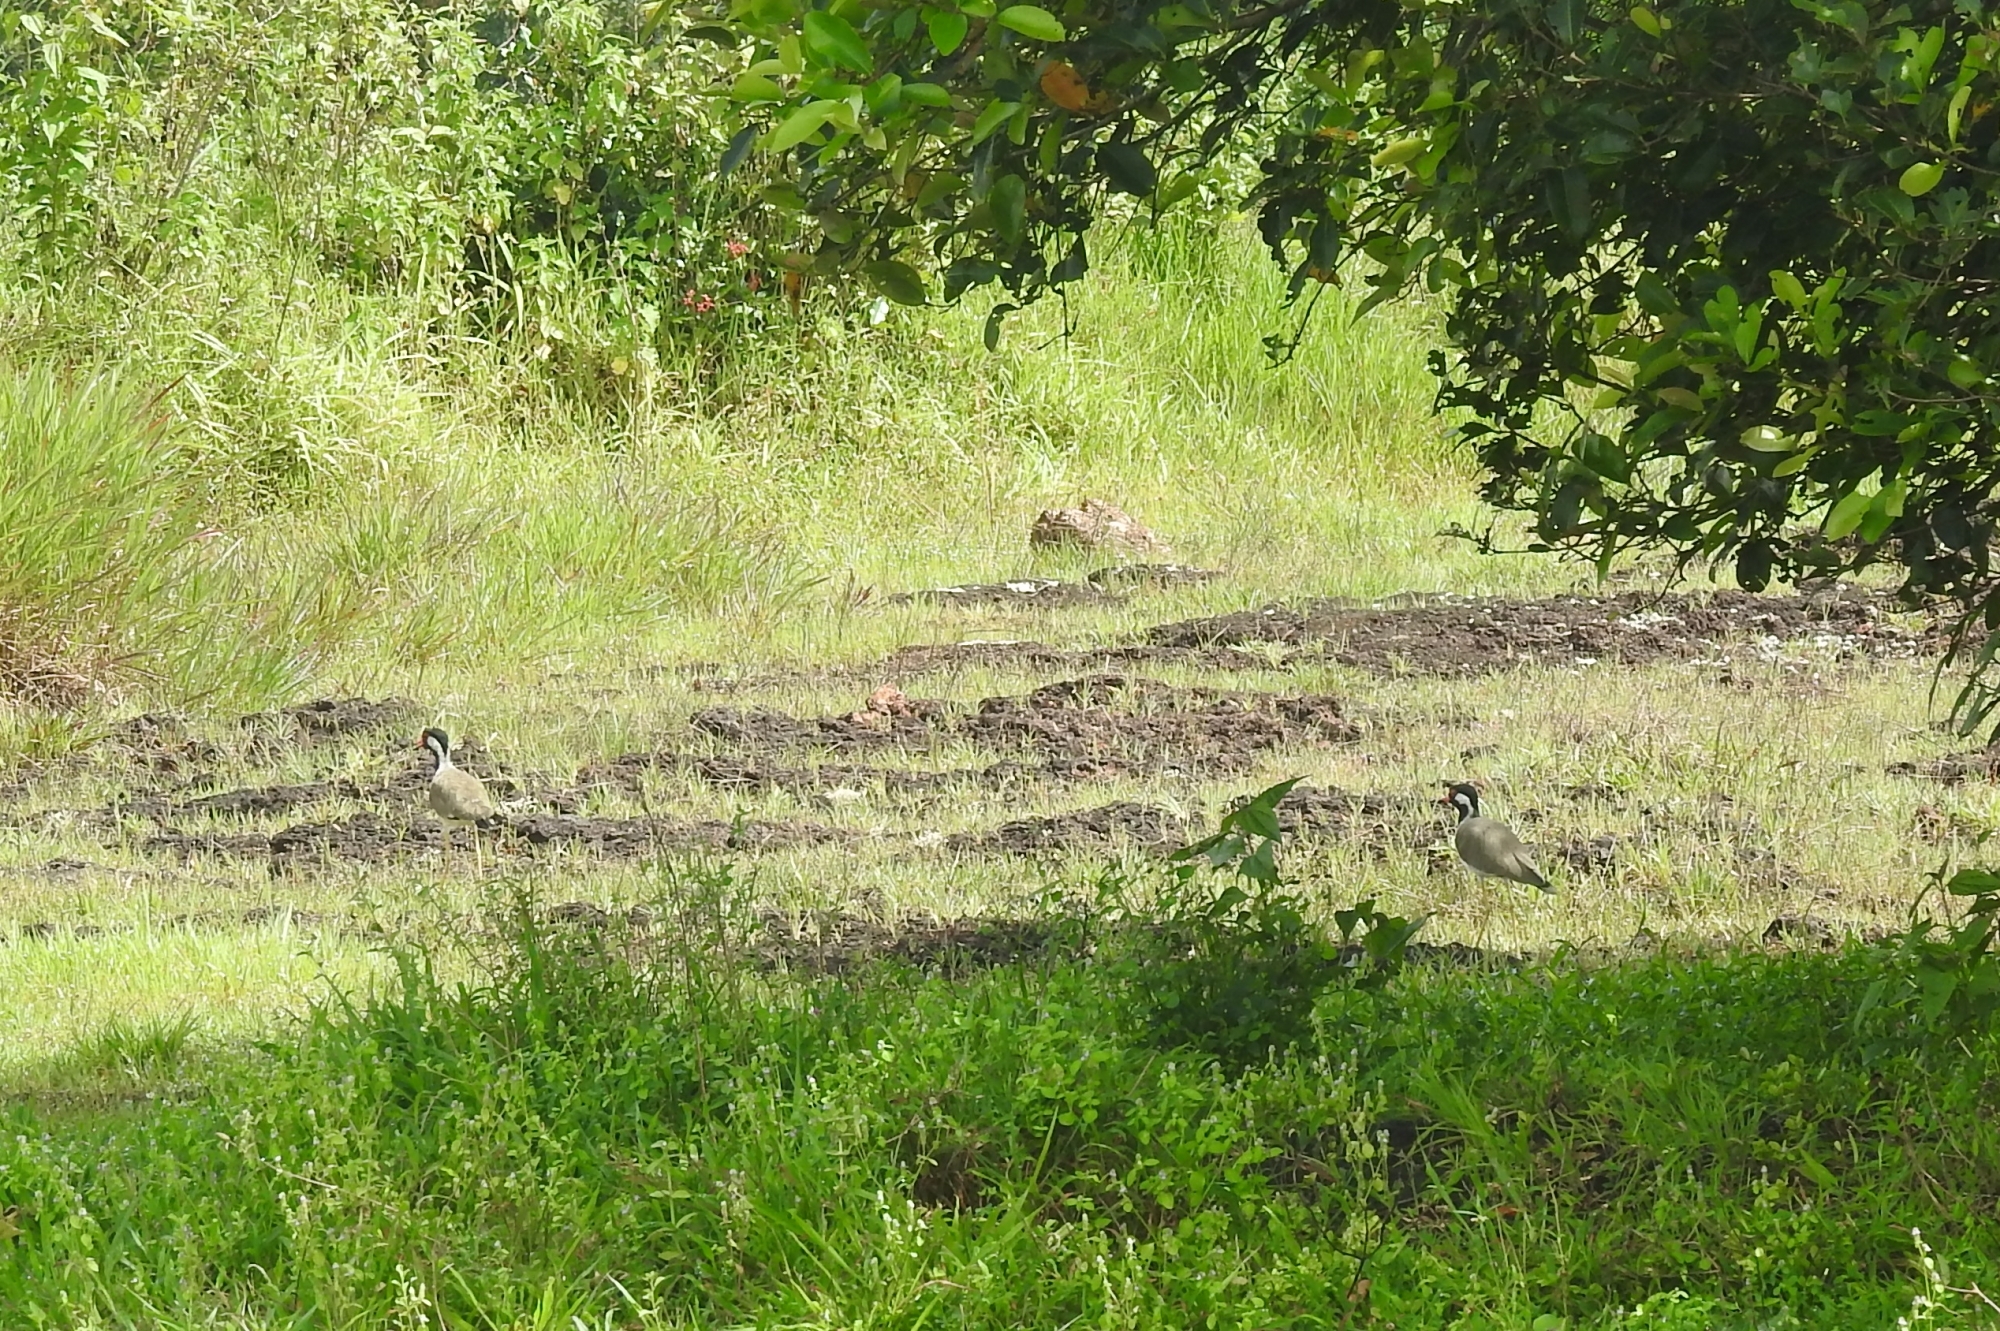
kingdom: Animalia
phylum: Chordata
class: Aves
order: Charadriiformes
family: Charadriidae
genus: Vanellus
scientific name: Vanellus indicus
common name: Red-wattled lapwing
